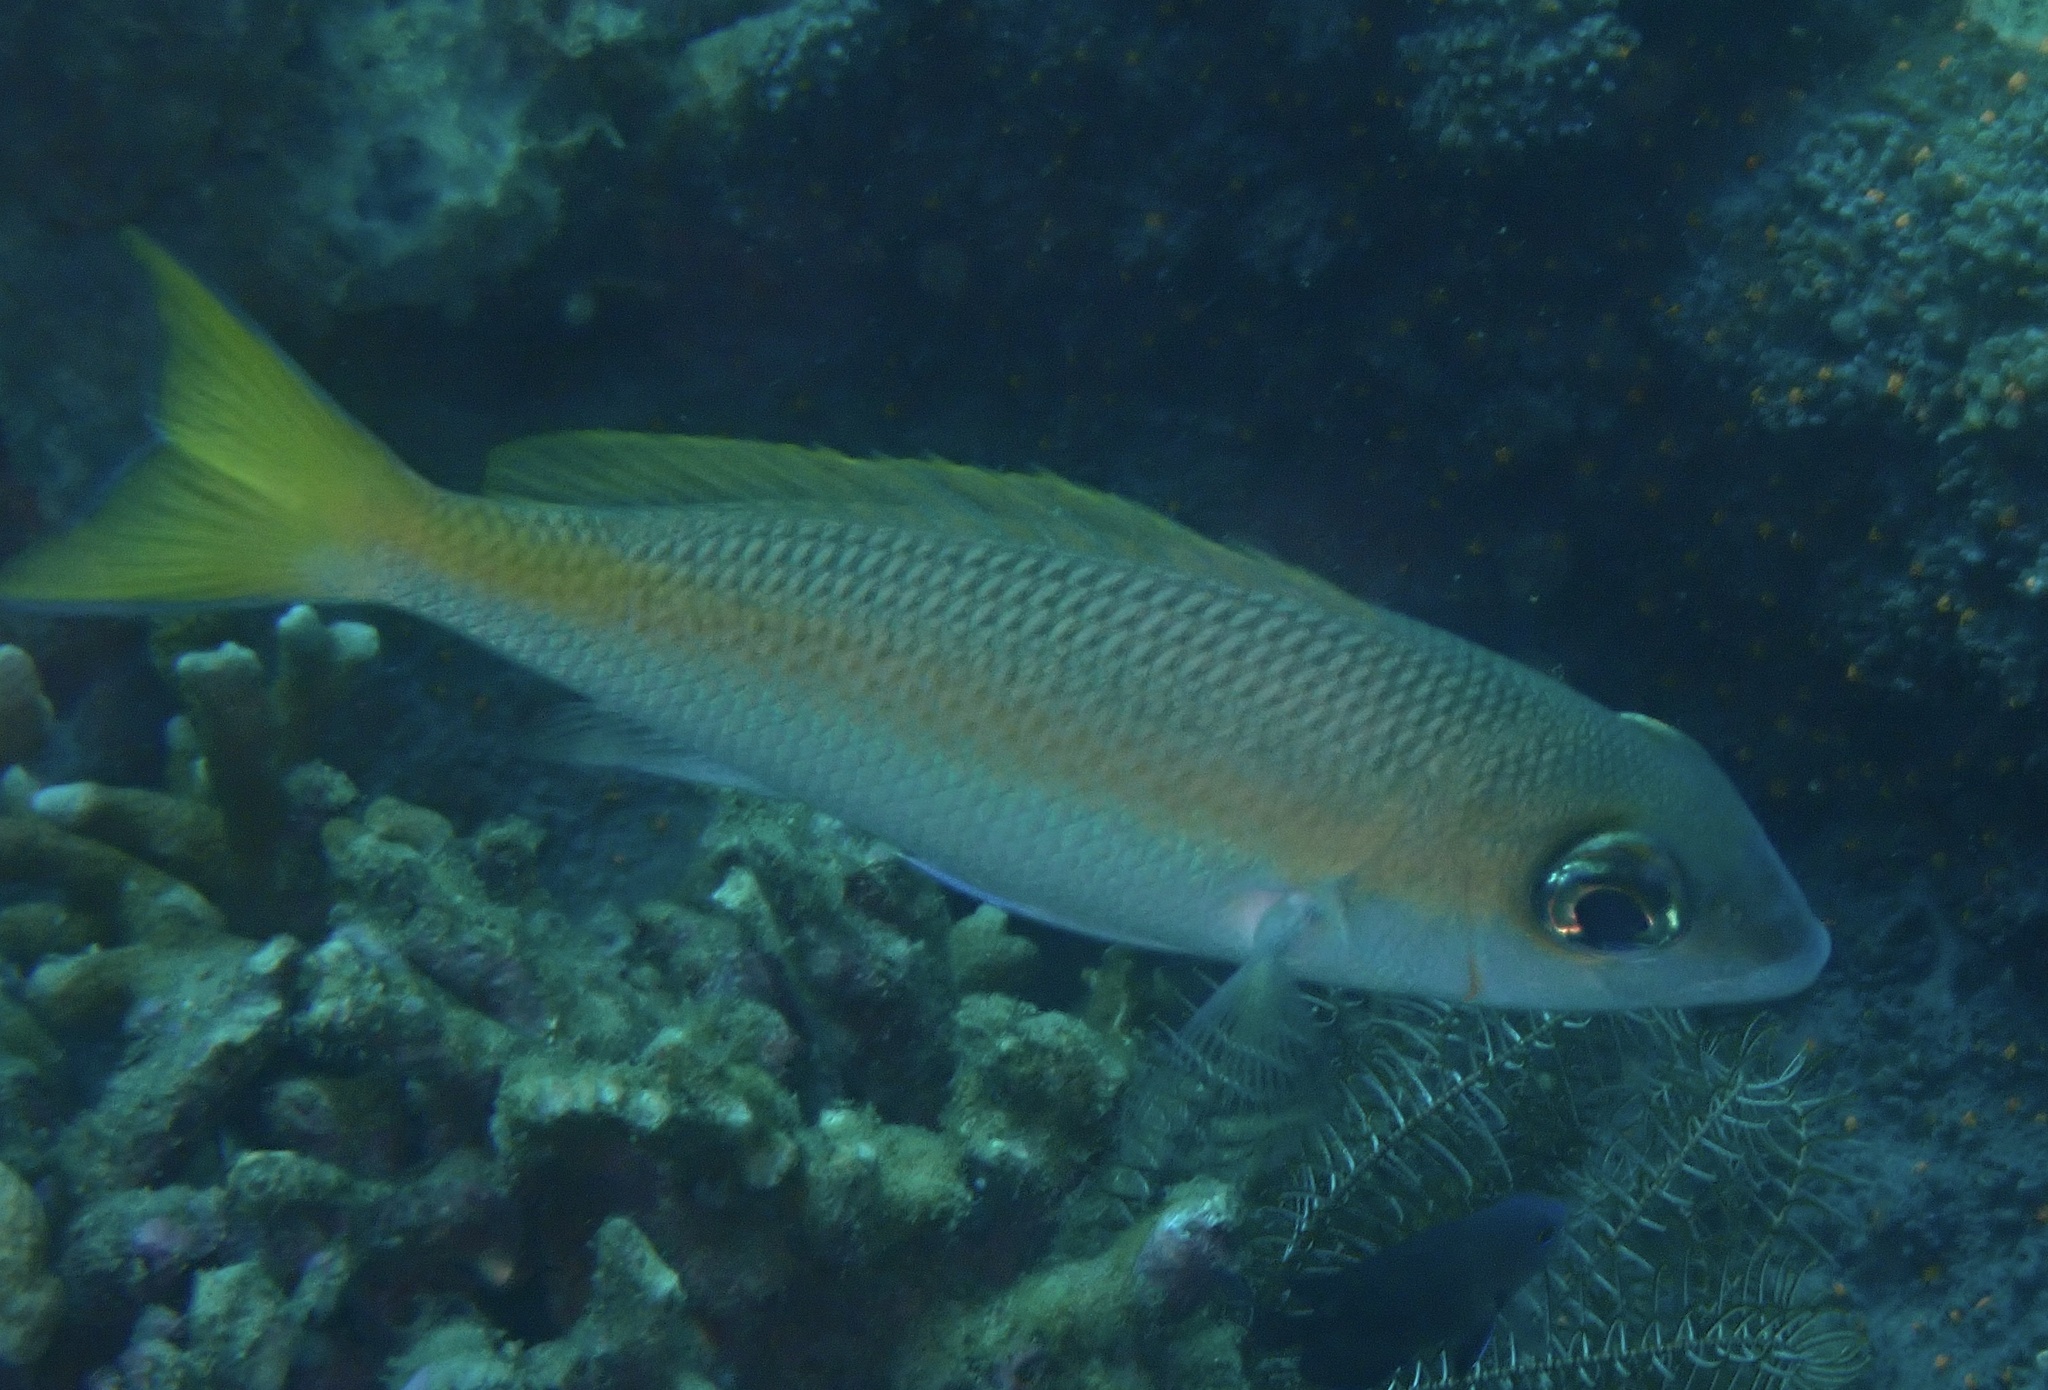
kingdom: Animalia
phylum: Chordata
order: Perciformes
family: Nemipteridae
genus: Scolopsis
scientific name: Scolopsis aurata
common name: Yellowstripe monocle bream
